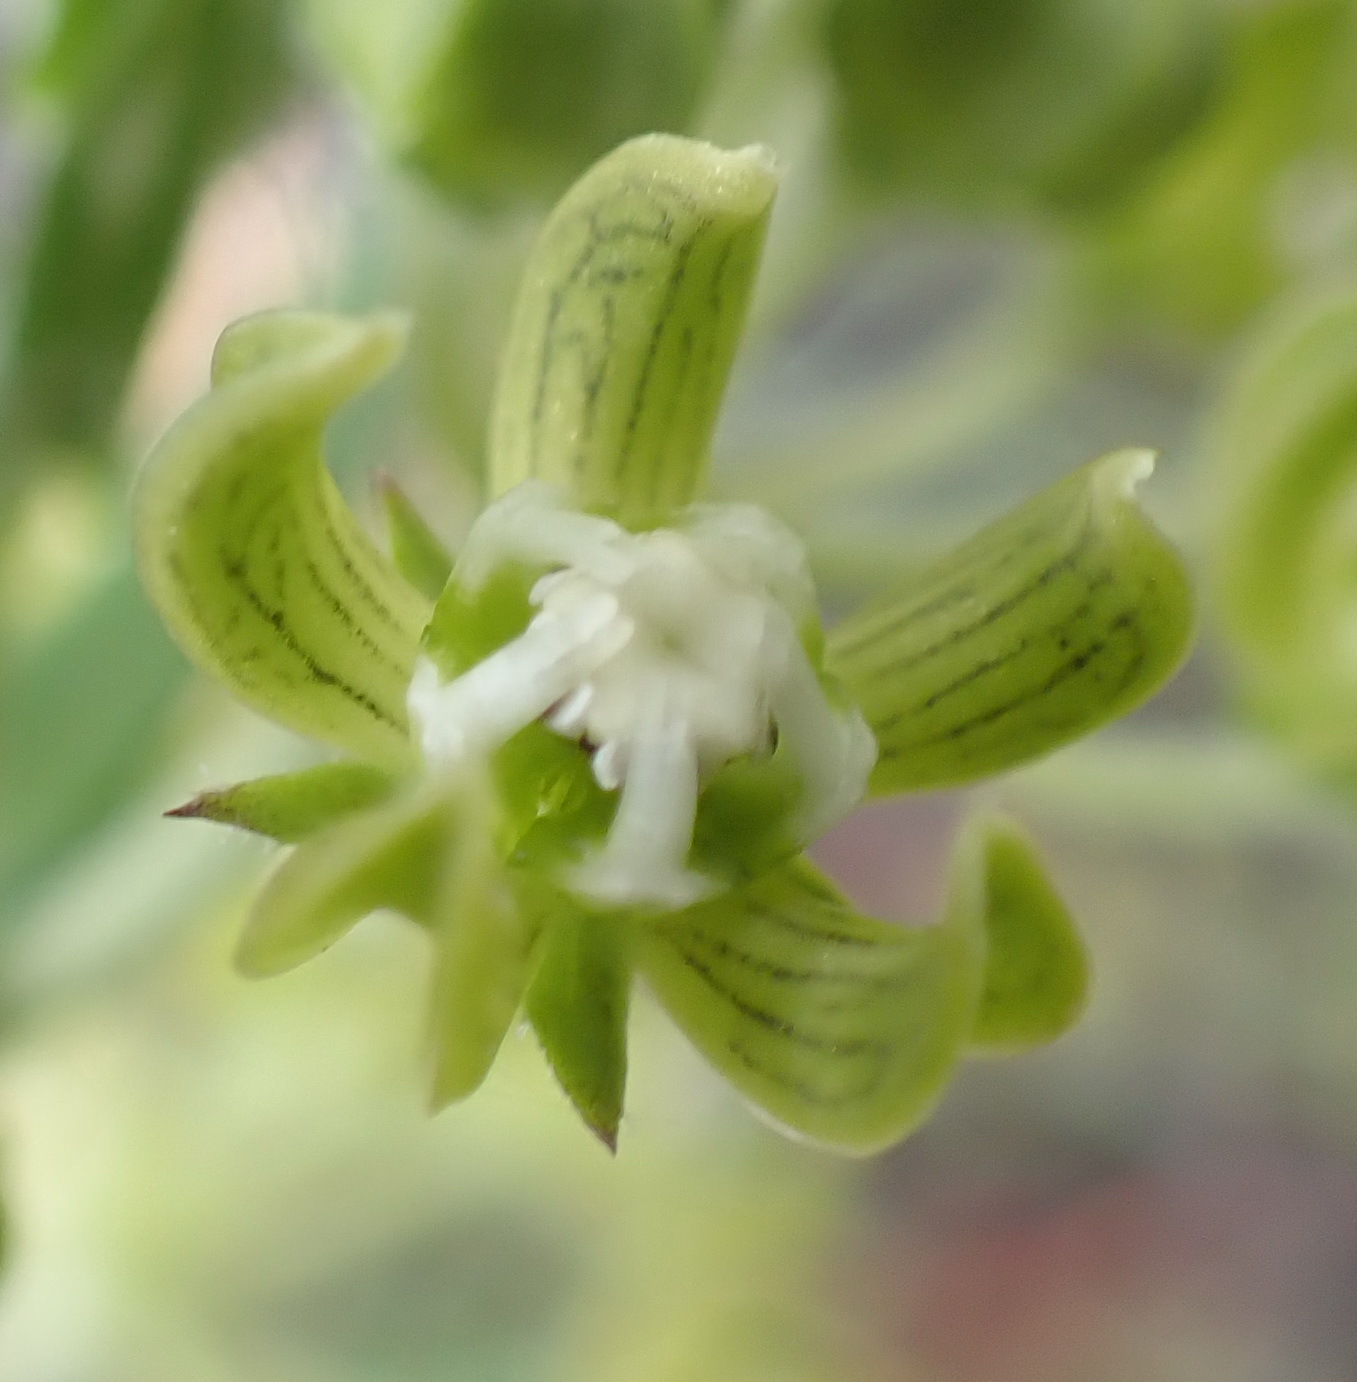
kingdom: Plantae
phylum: Tracheophyta
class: Magnoliopsida
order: Gentianales
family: Apocynaceae
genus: Schizoglossum
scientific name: Schizoglossum cordifolium
